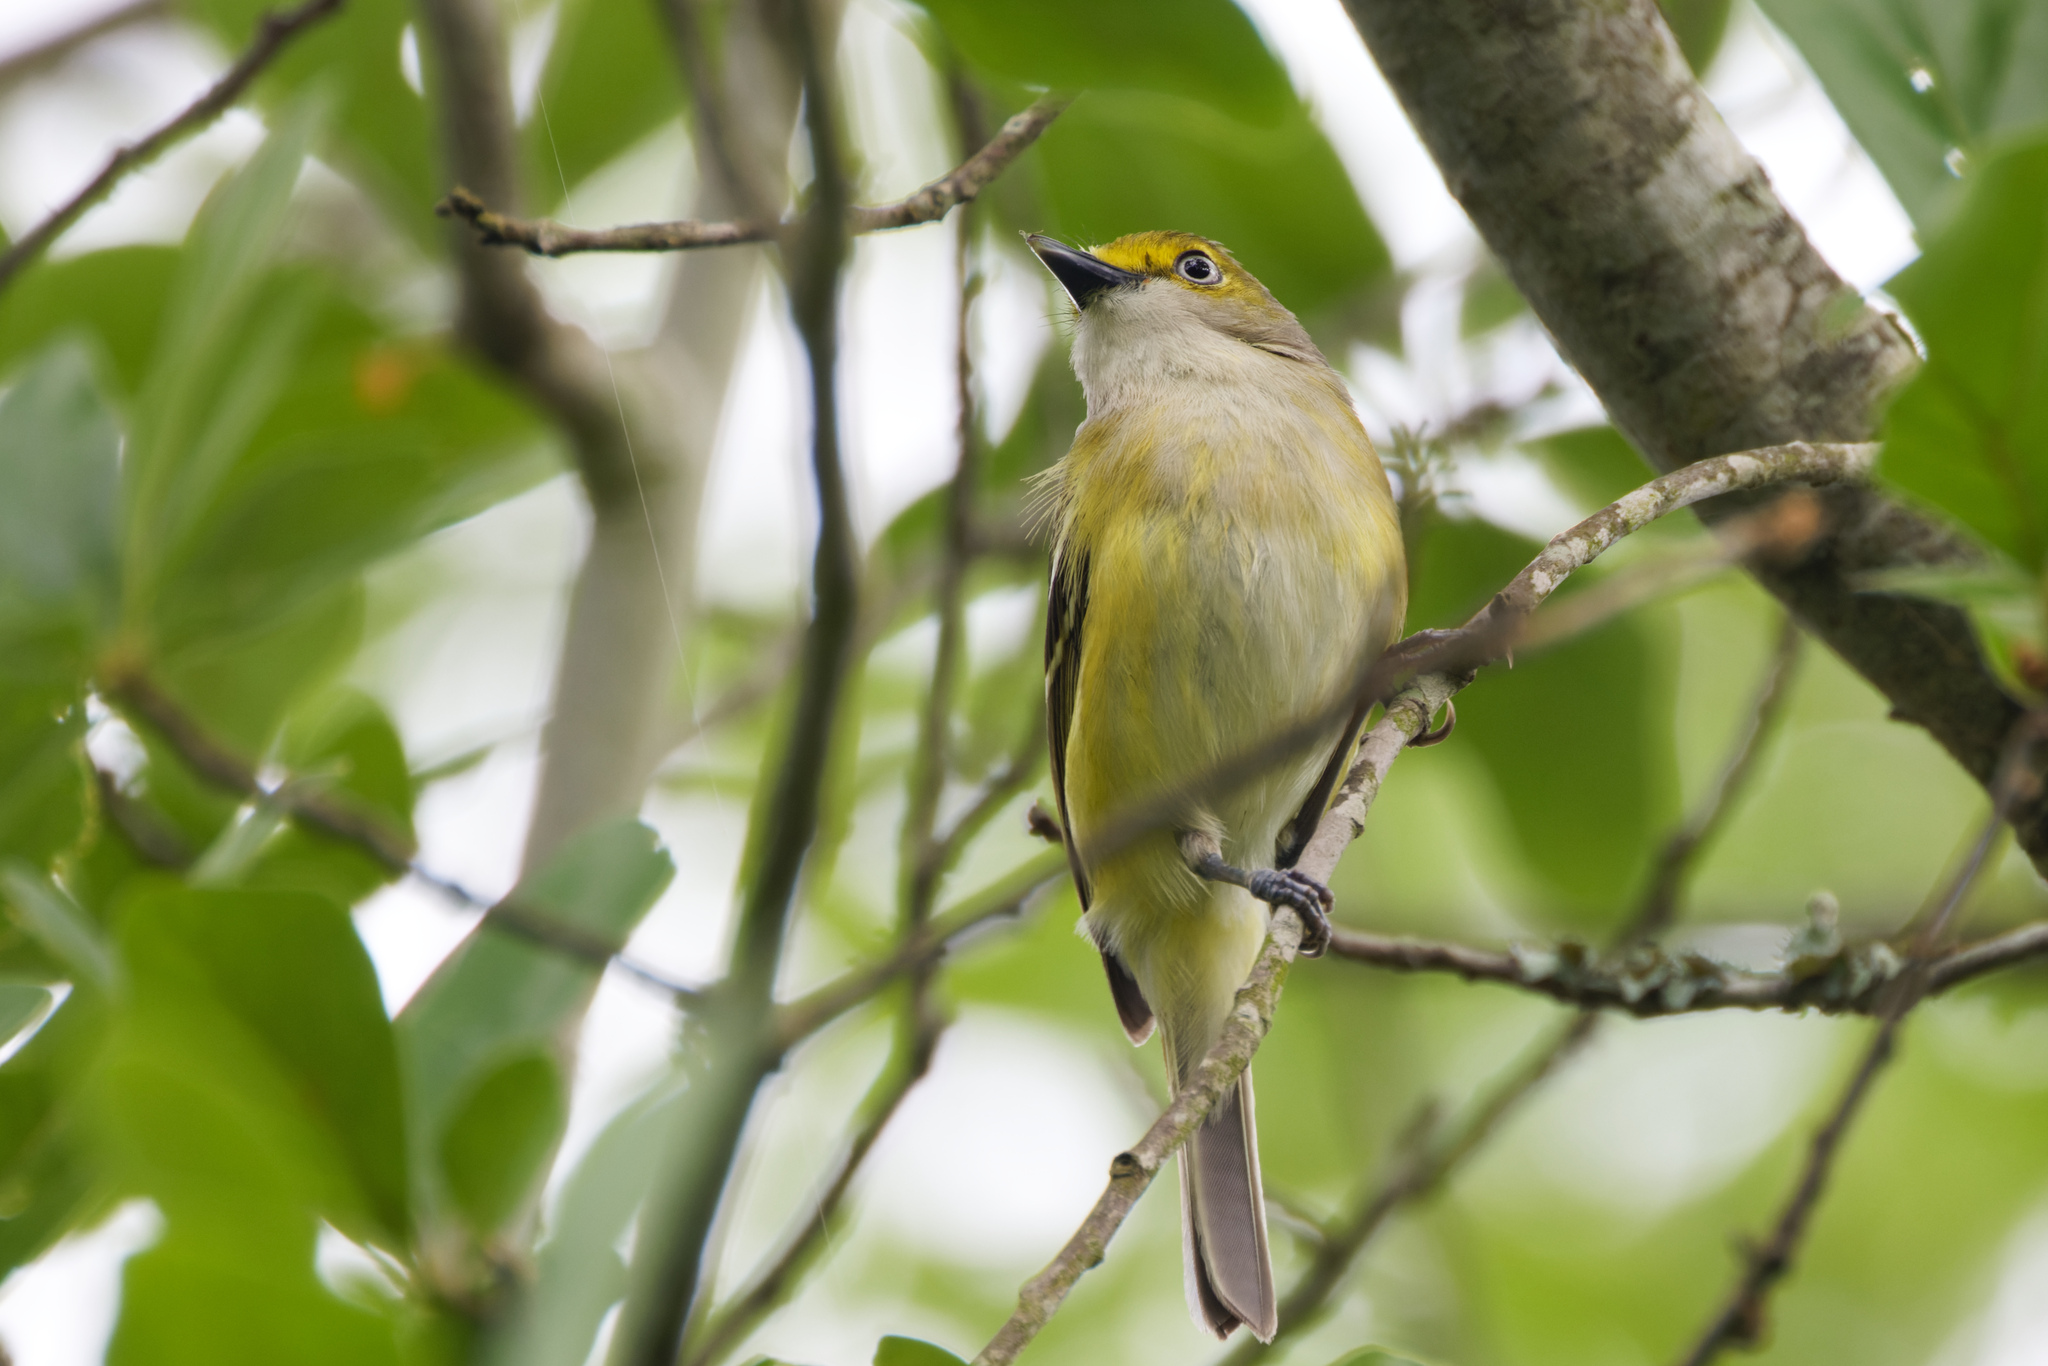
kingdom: Animalia
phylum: Chordata
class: Aves
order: Passeriformes
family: Vireonidae
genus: Vireo
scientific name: Vireo griseus
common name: White-eyed vireo
